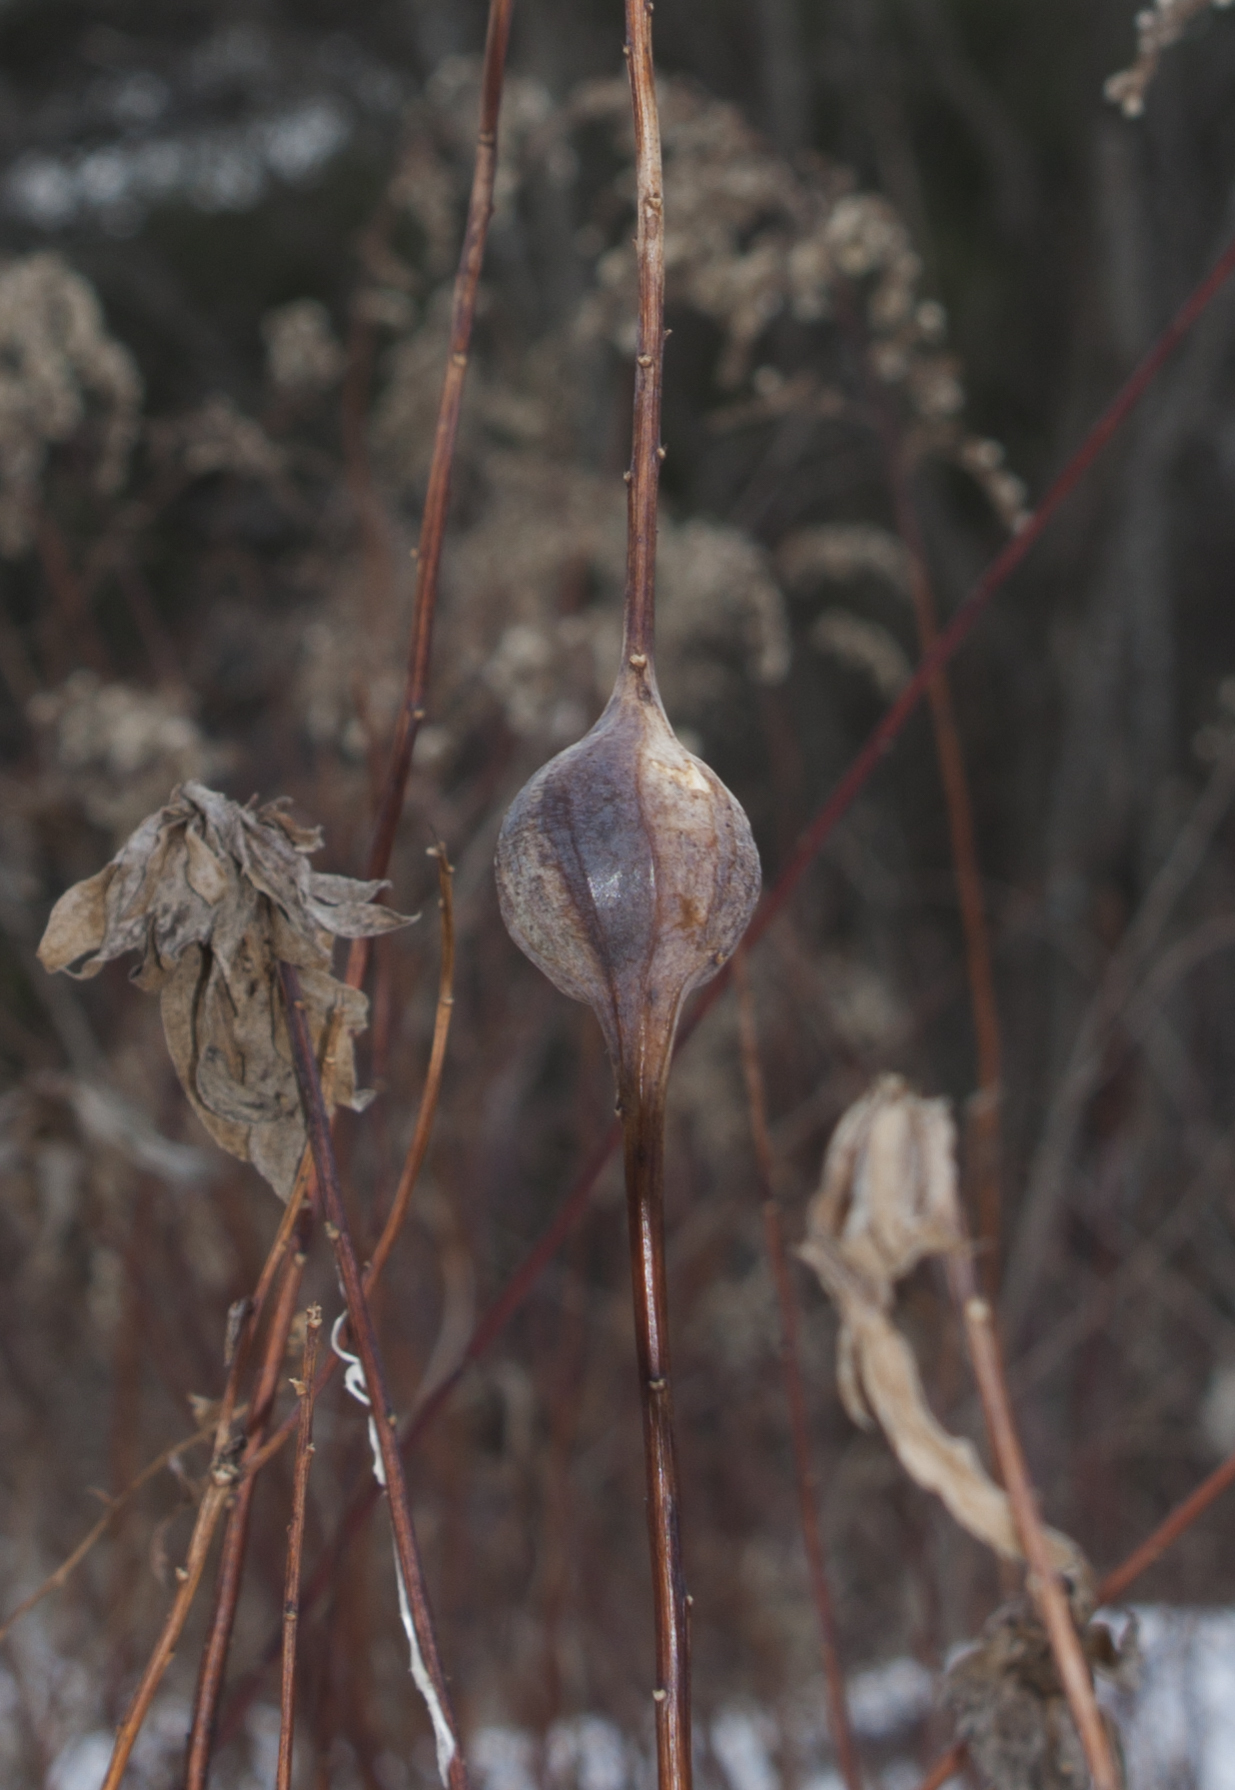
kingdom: Animalia
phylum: Arthropoda
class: Insecta
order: Diptera
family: Tephritidae
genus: Eurosta
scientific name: Eurosta solidaginis
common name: Goldenrod gall fly
